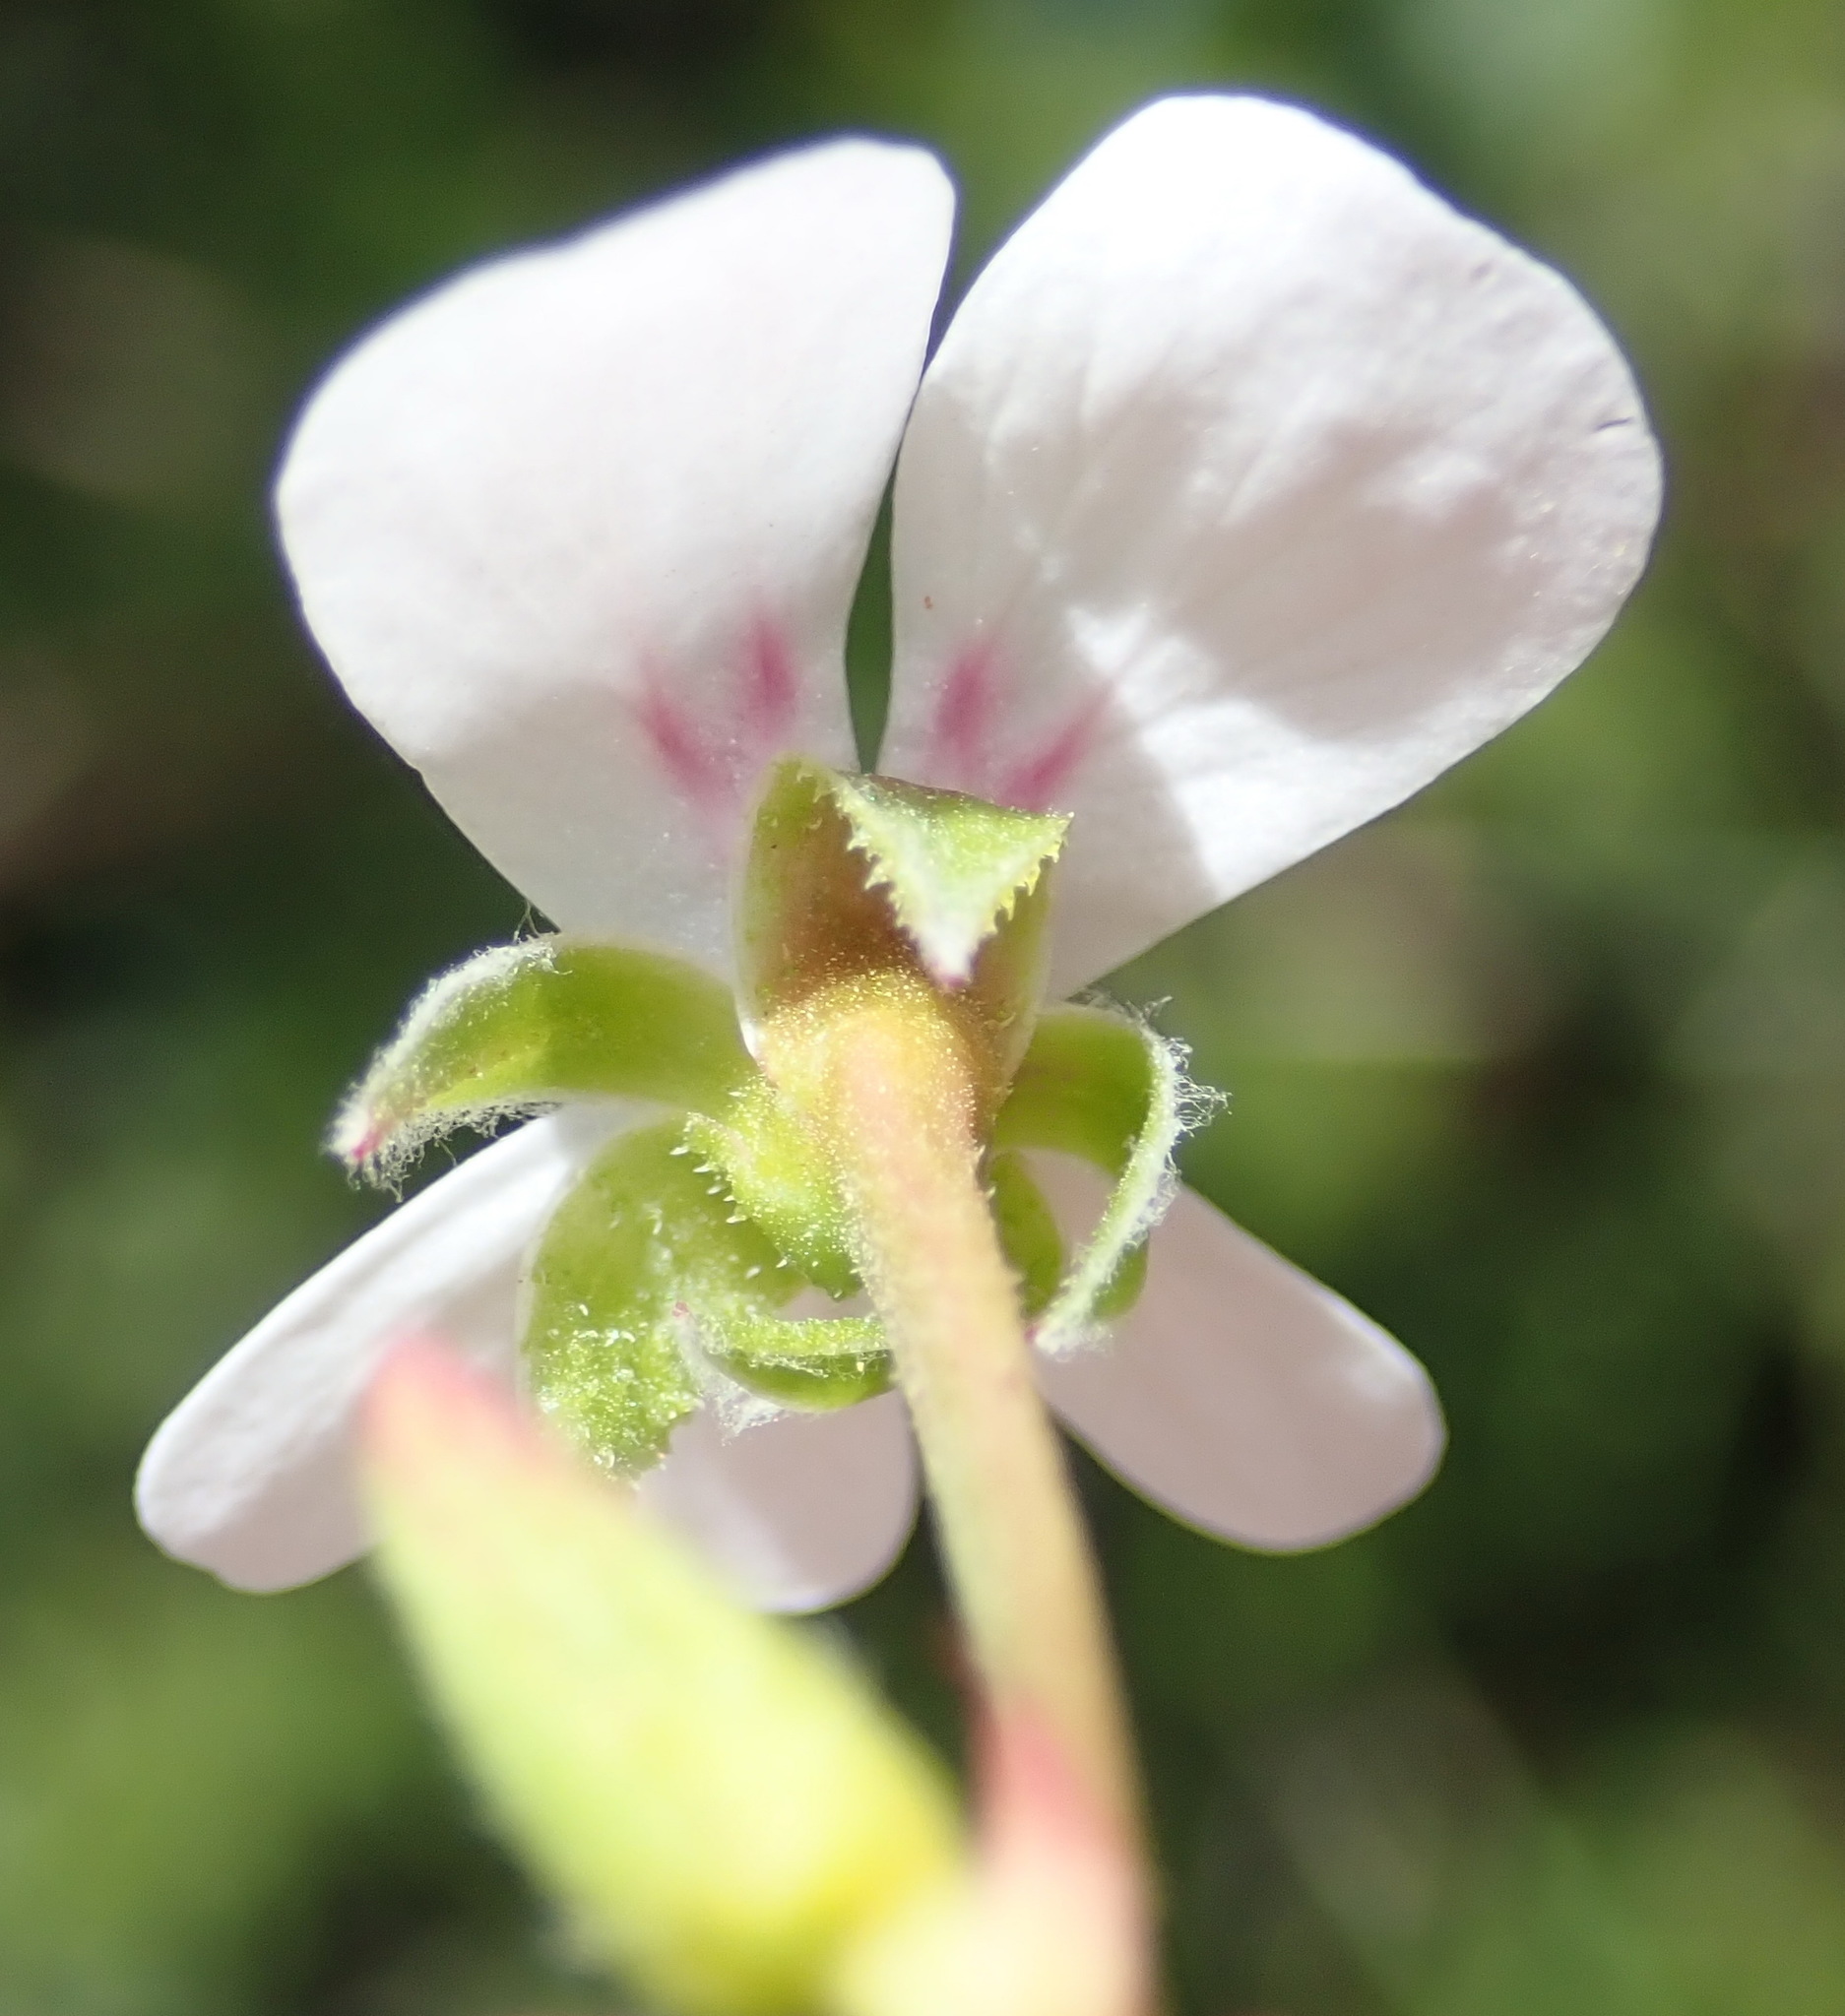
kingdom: Plantae
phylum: Tracheophyta
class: Magnoliopsida
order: Geraniales
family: Geraniaceae
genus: Pelargonium
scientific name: Pelargonium fruticosum
